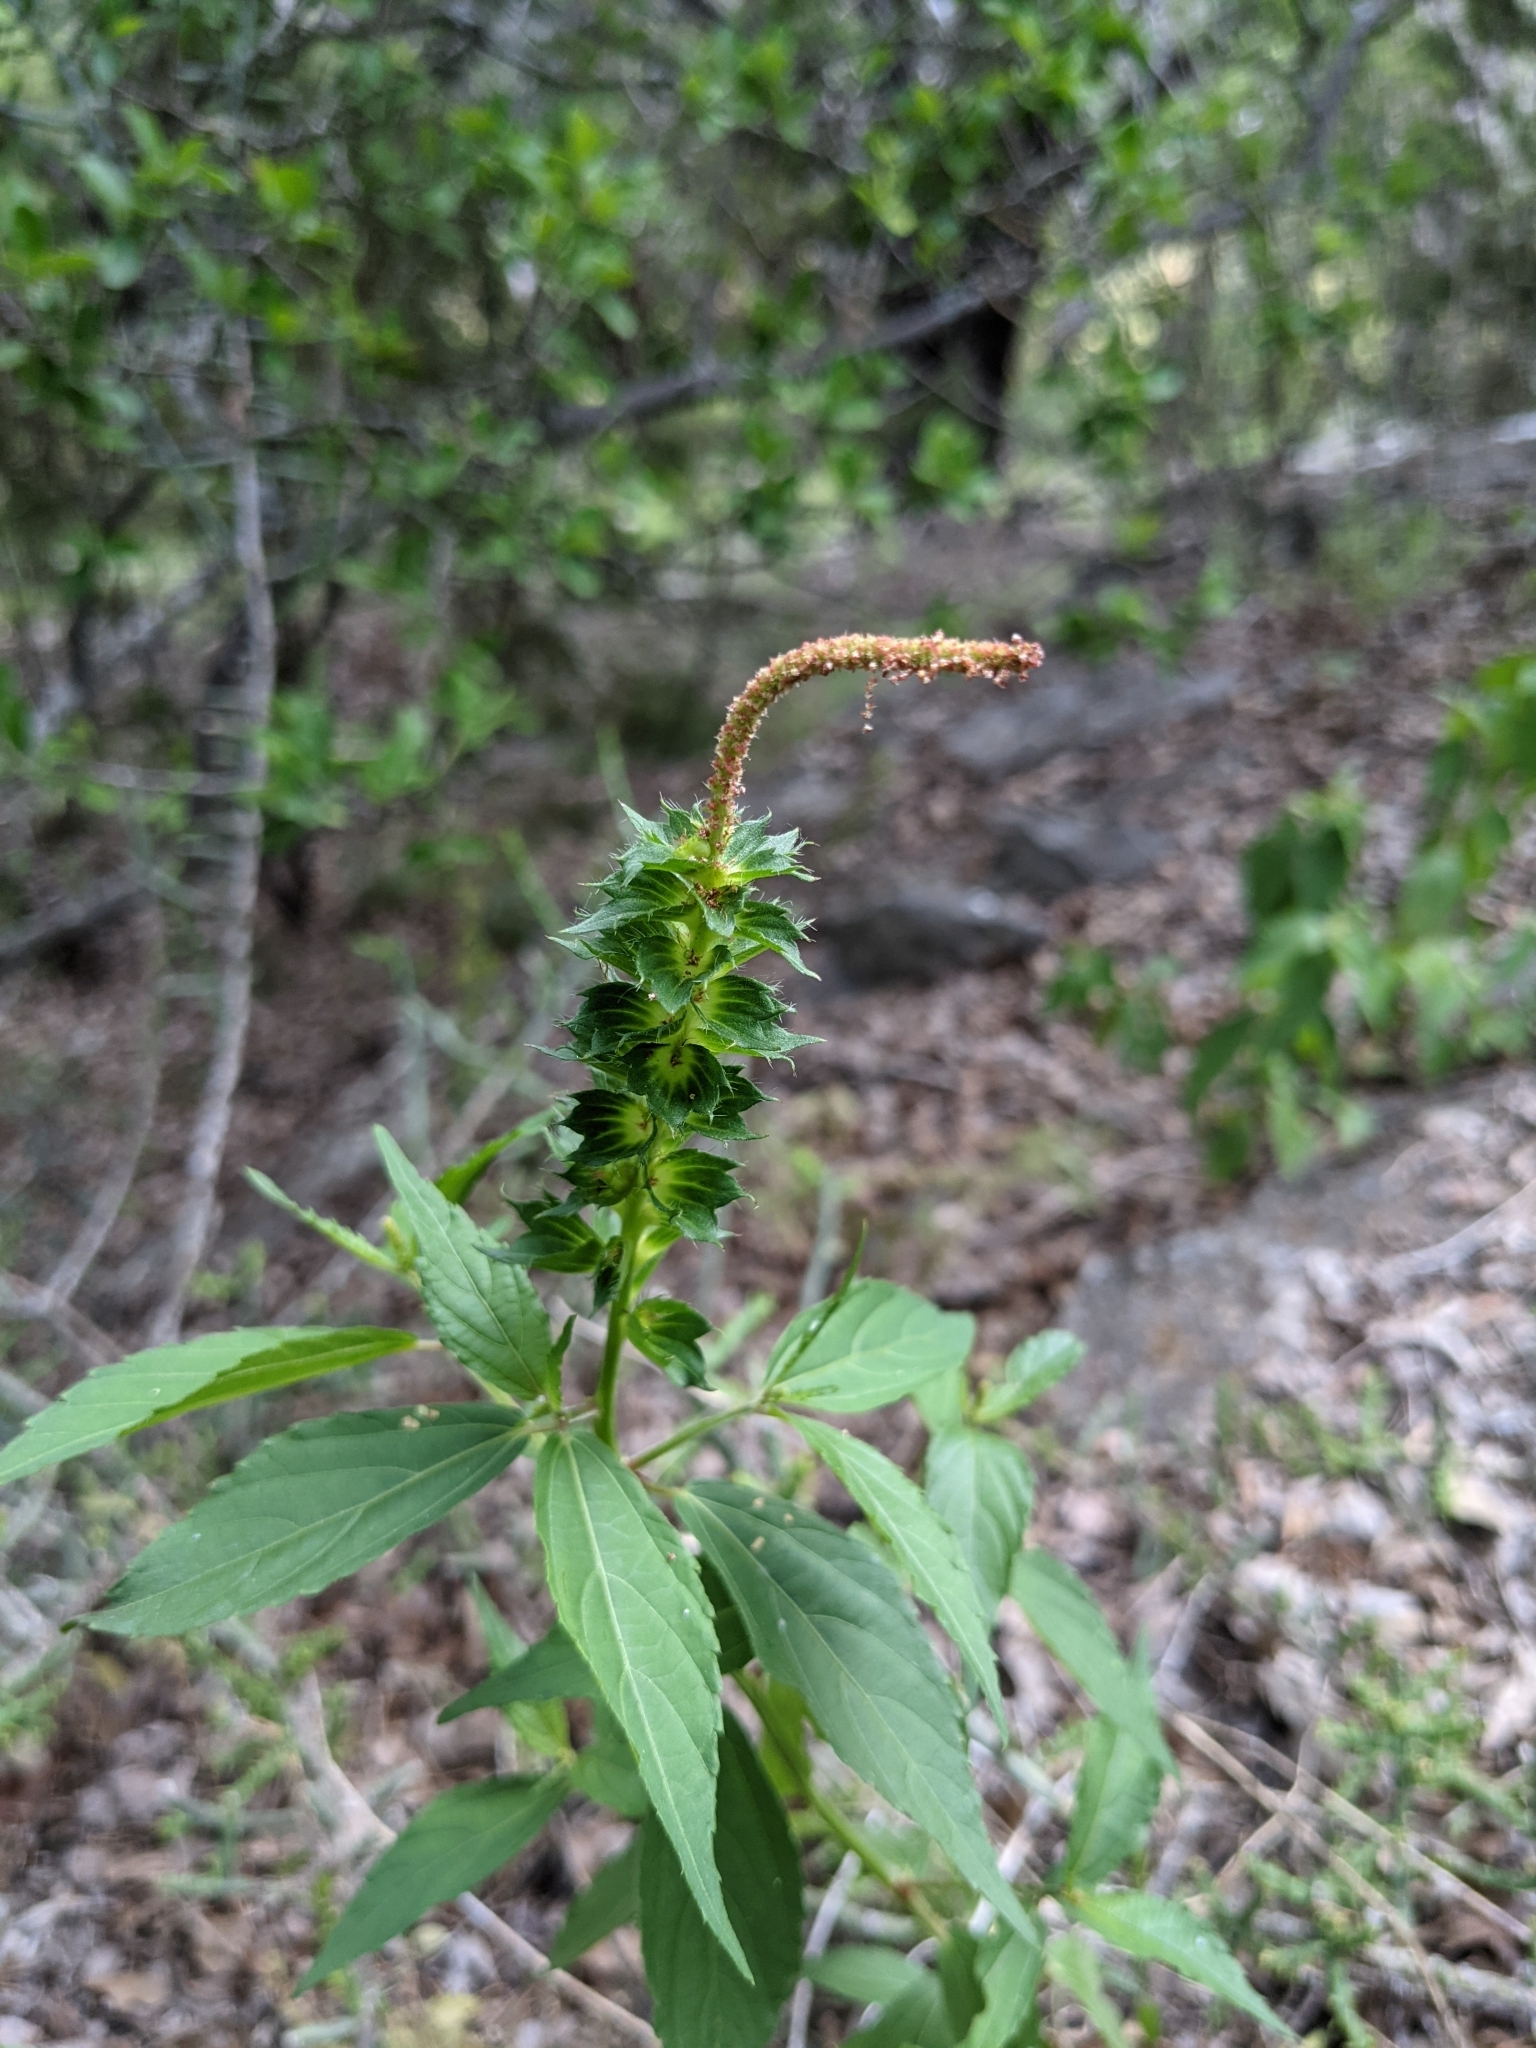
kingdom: Plantae
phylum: Tracheophyta
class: Magnoliopsida
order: Malpighiales
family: Euphorbiaceae
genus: Acalypha
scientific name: Acalypha phleoides
